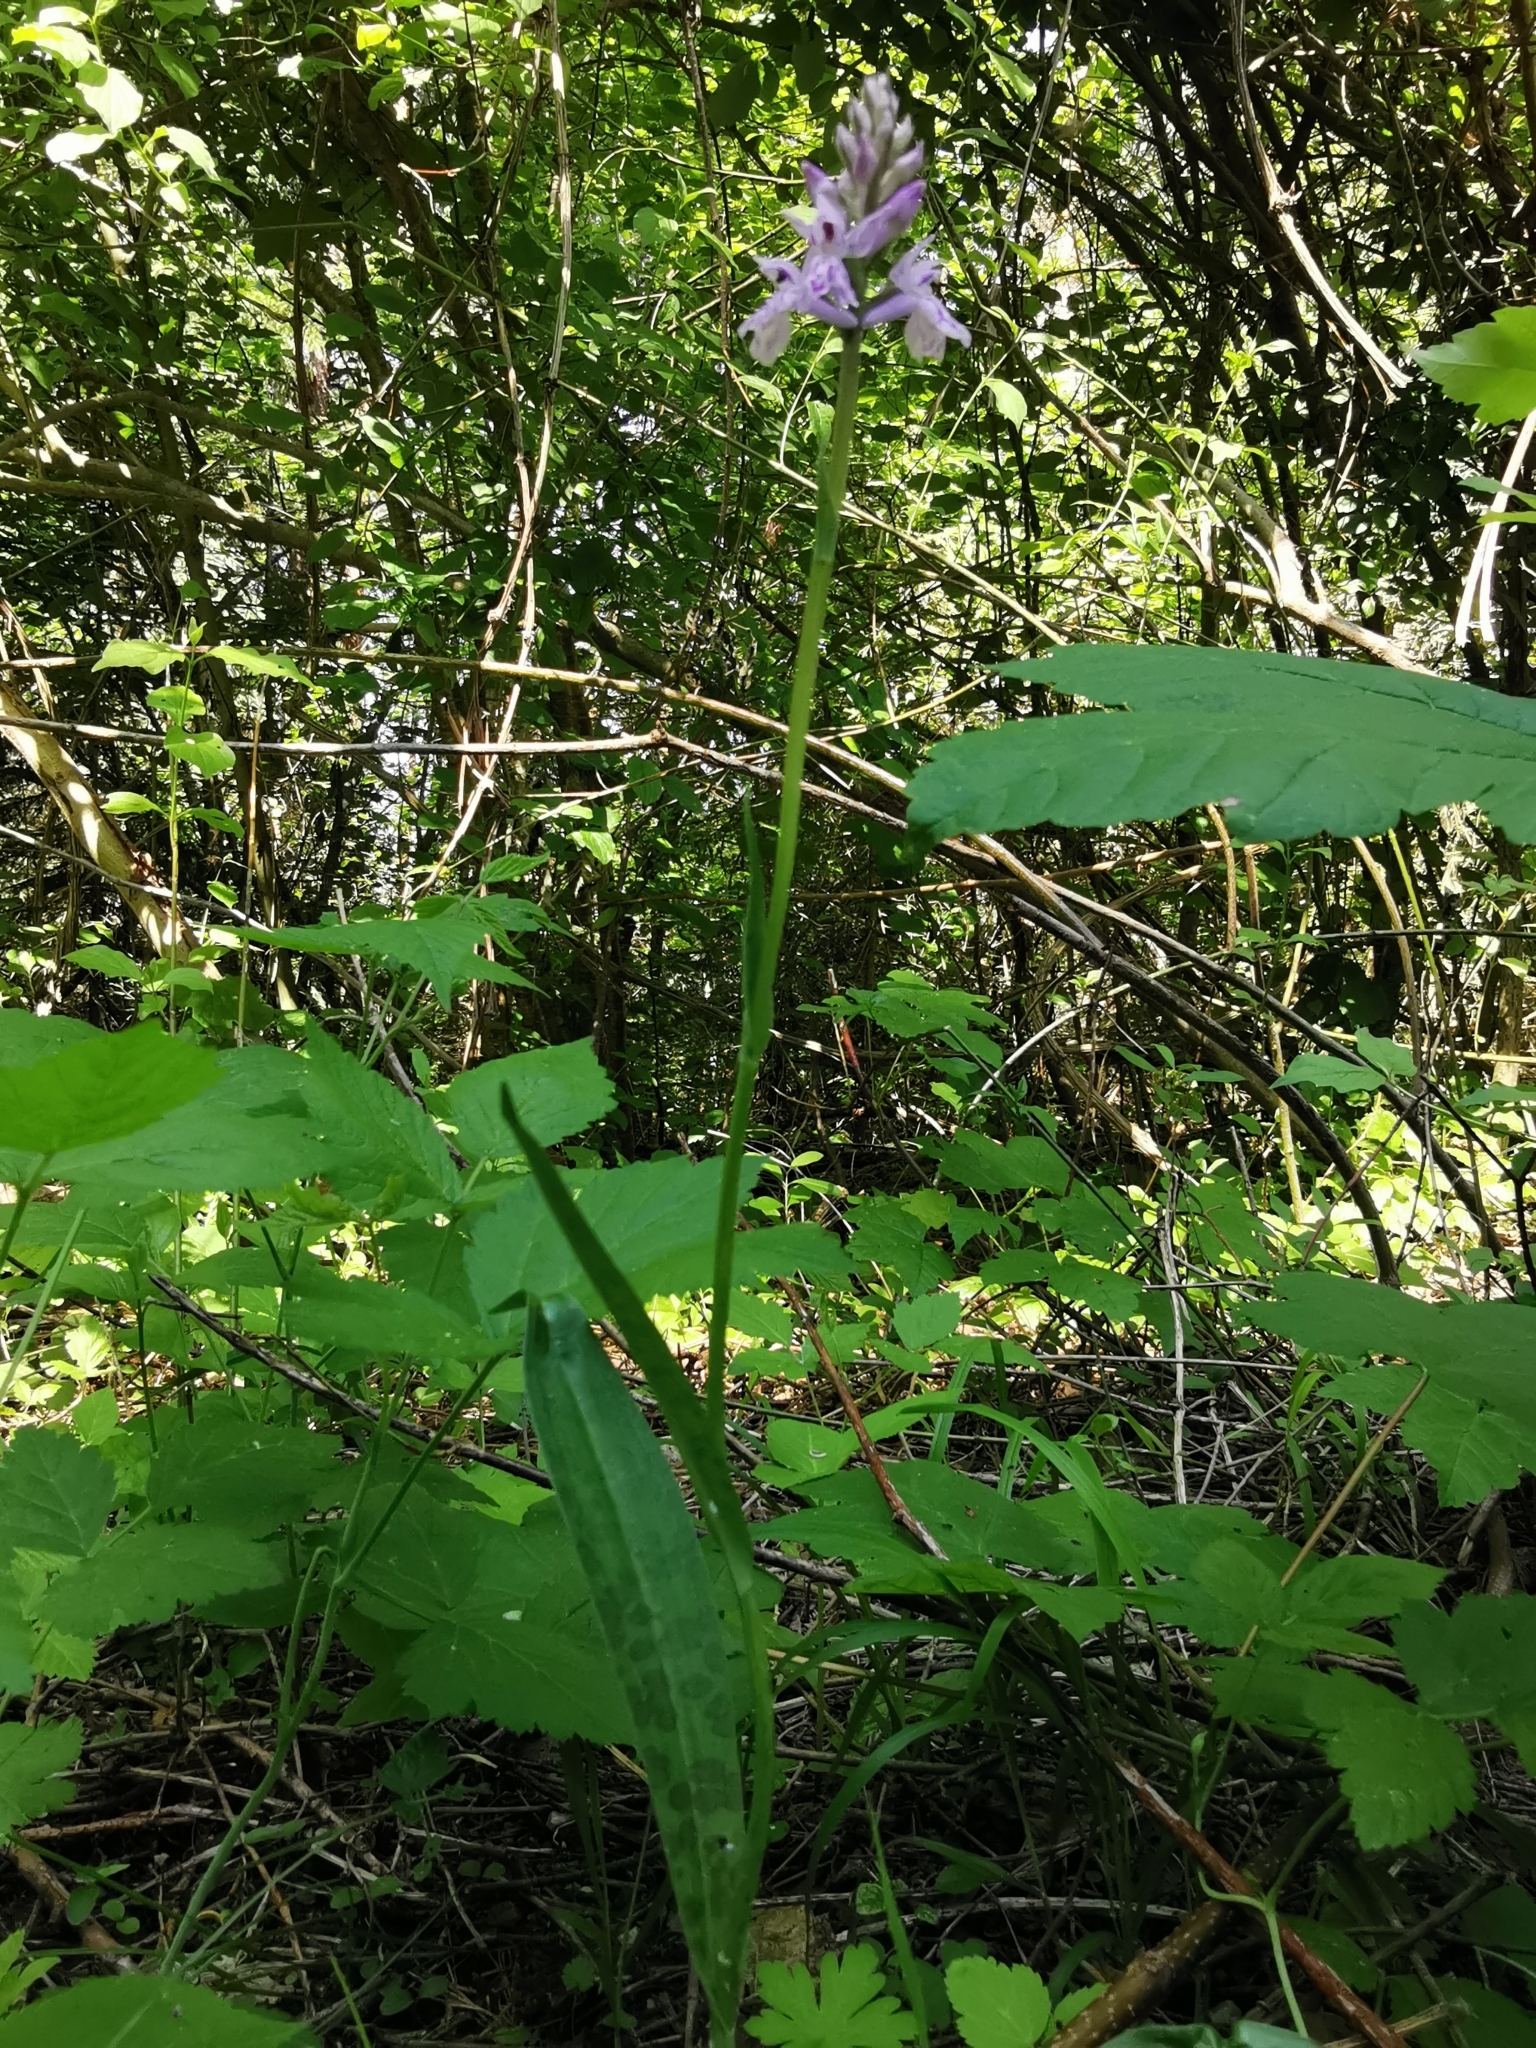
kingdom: Plantae
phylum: Tracheophyta
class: Liliopsida
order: Asparagales
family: Orchidaceae
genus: Dactylorhiza
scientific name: Dactylorhiza maculata
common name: Heath spotted-orchid
